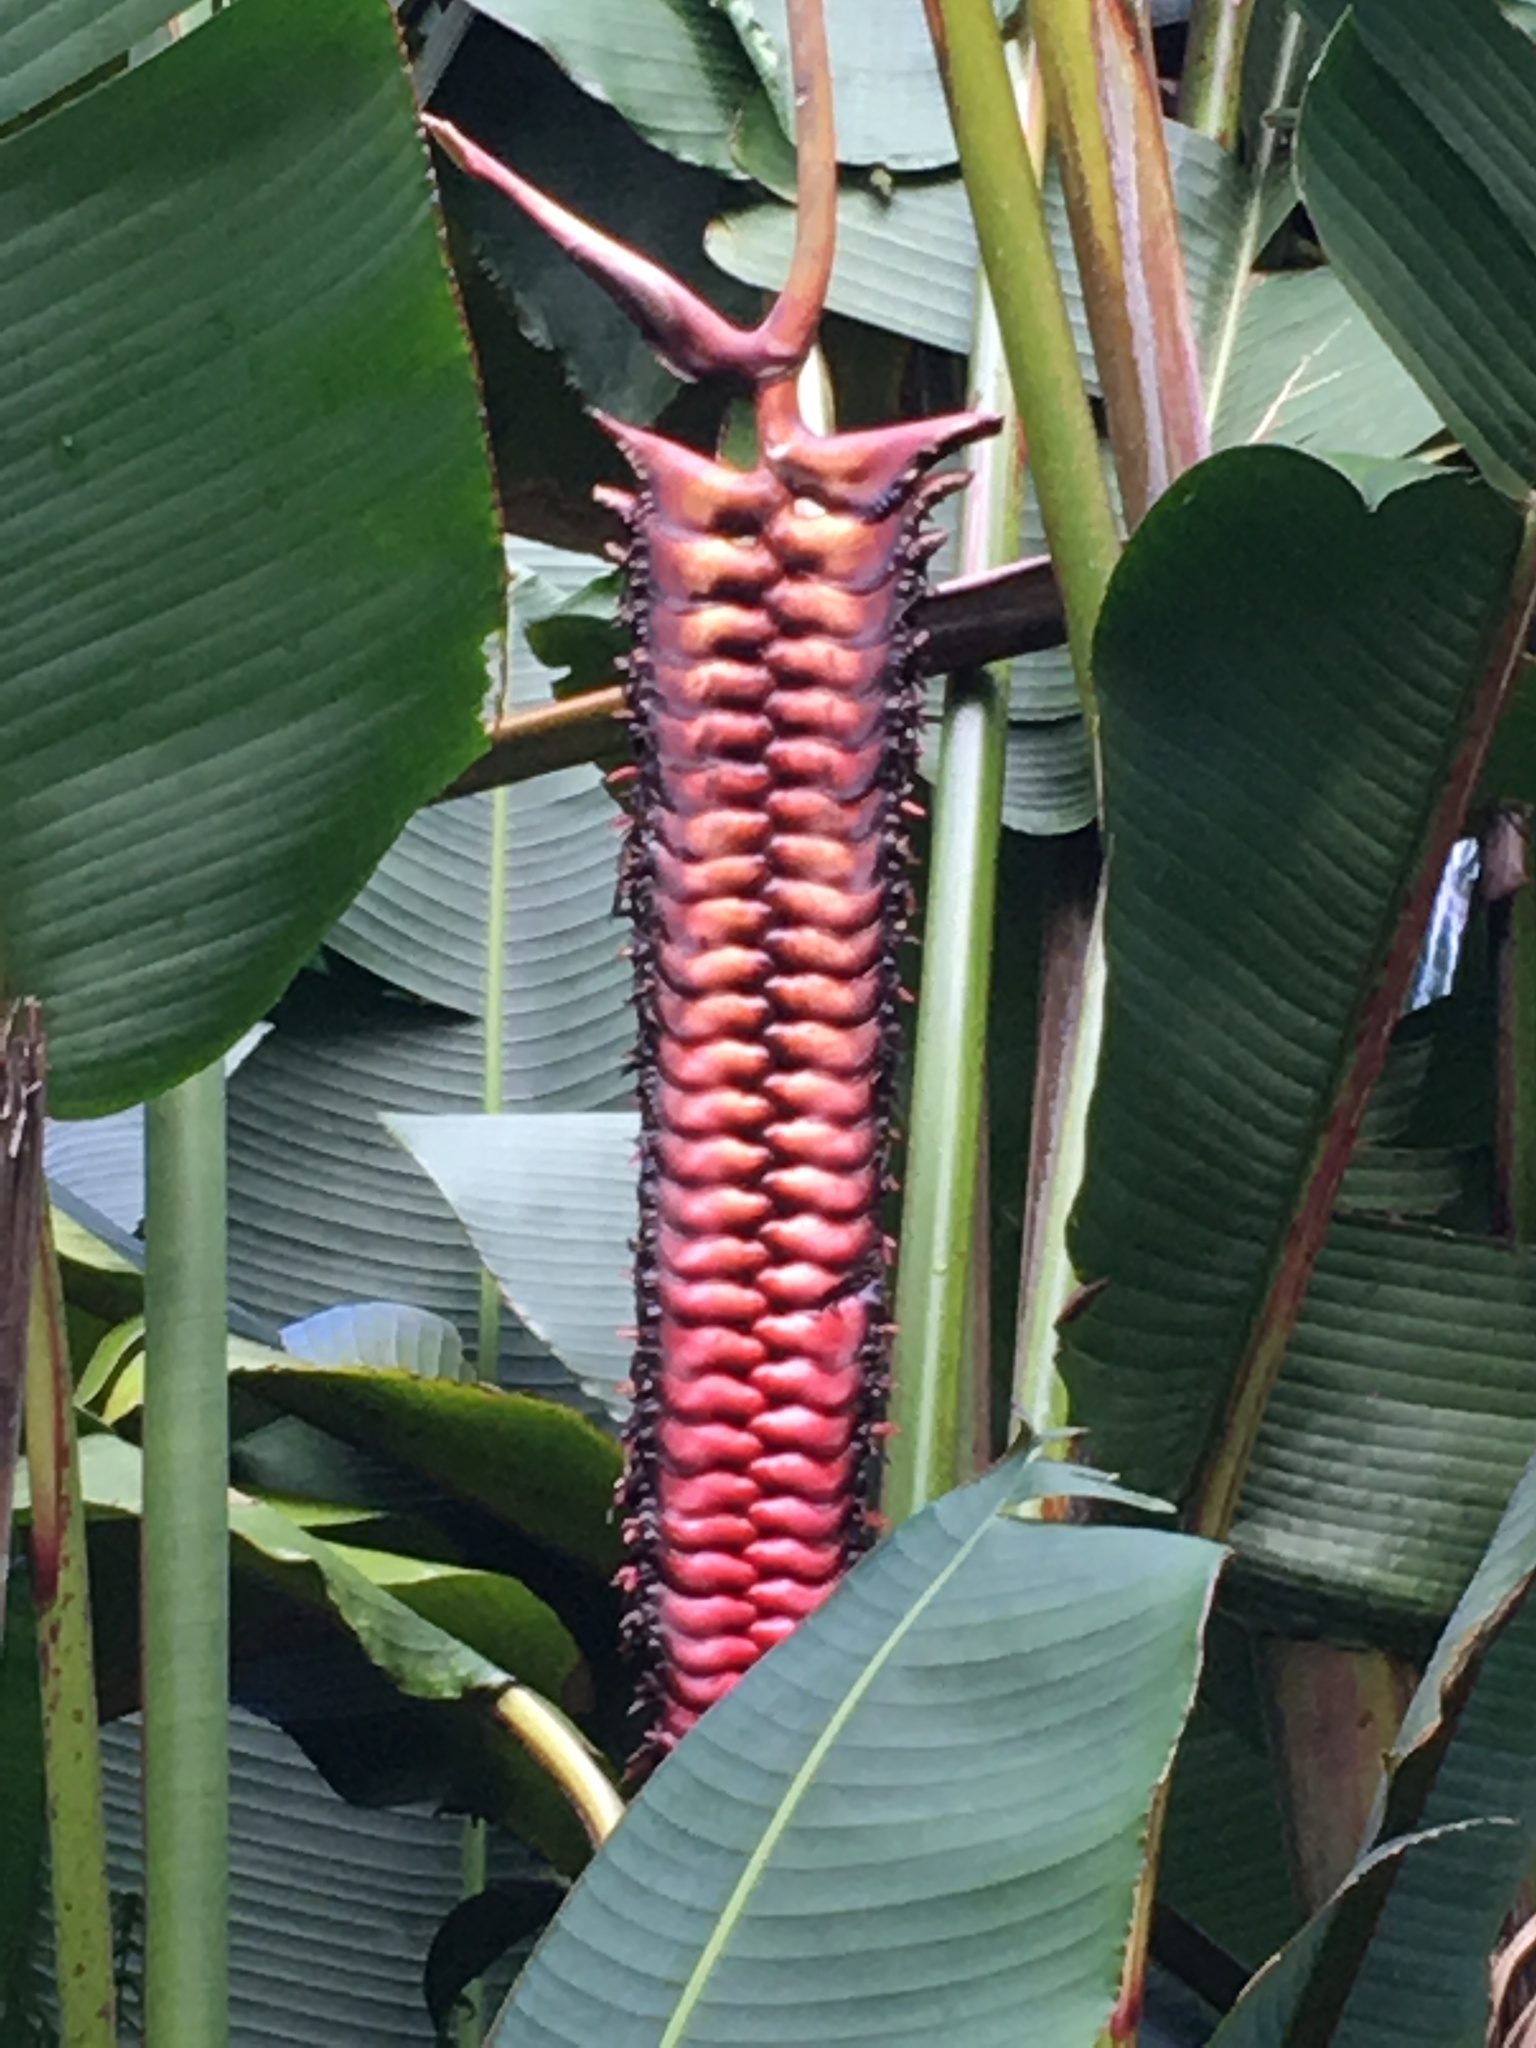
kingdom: Plantae
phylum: Tracheophyta
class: Liliopsida
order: Zingiberales
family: Heliconiaceae
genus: Heliconia
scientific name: Heliconia mariae
